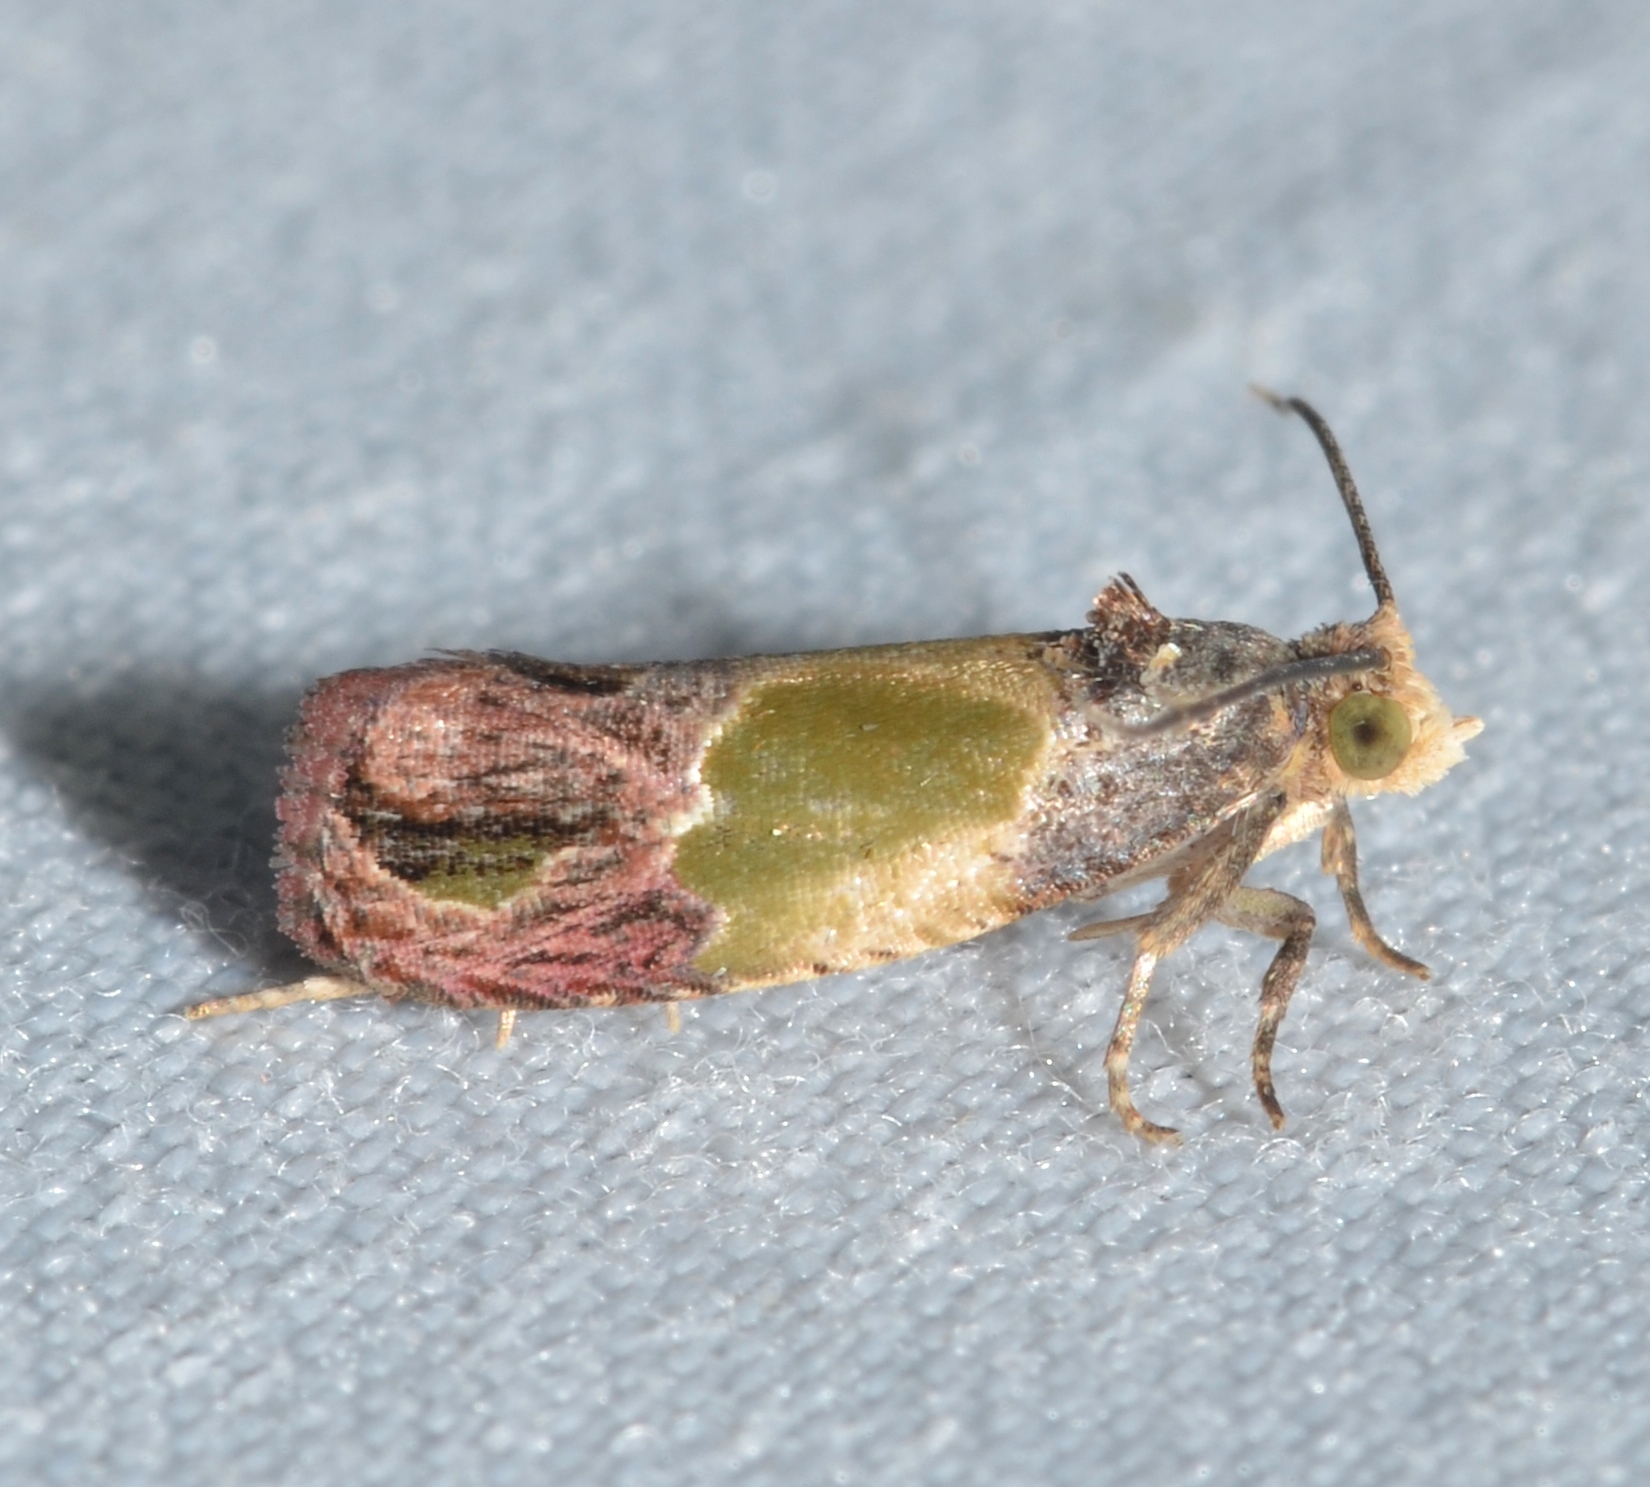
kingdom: Animalia
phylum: Arthropoda
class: Insecta
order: Lepidoptera
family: Tortricidae
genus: Eumarozia
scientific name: Eumarozia malachitana
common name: Sculptured moth
